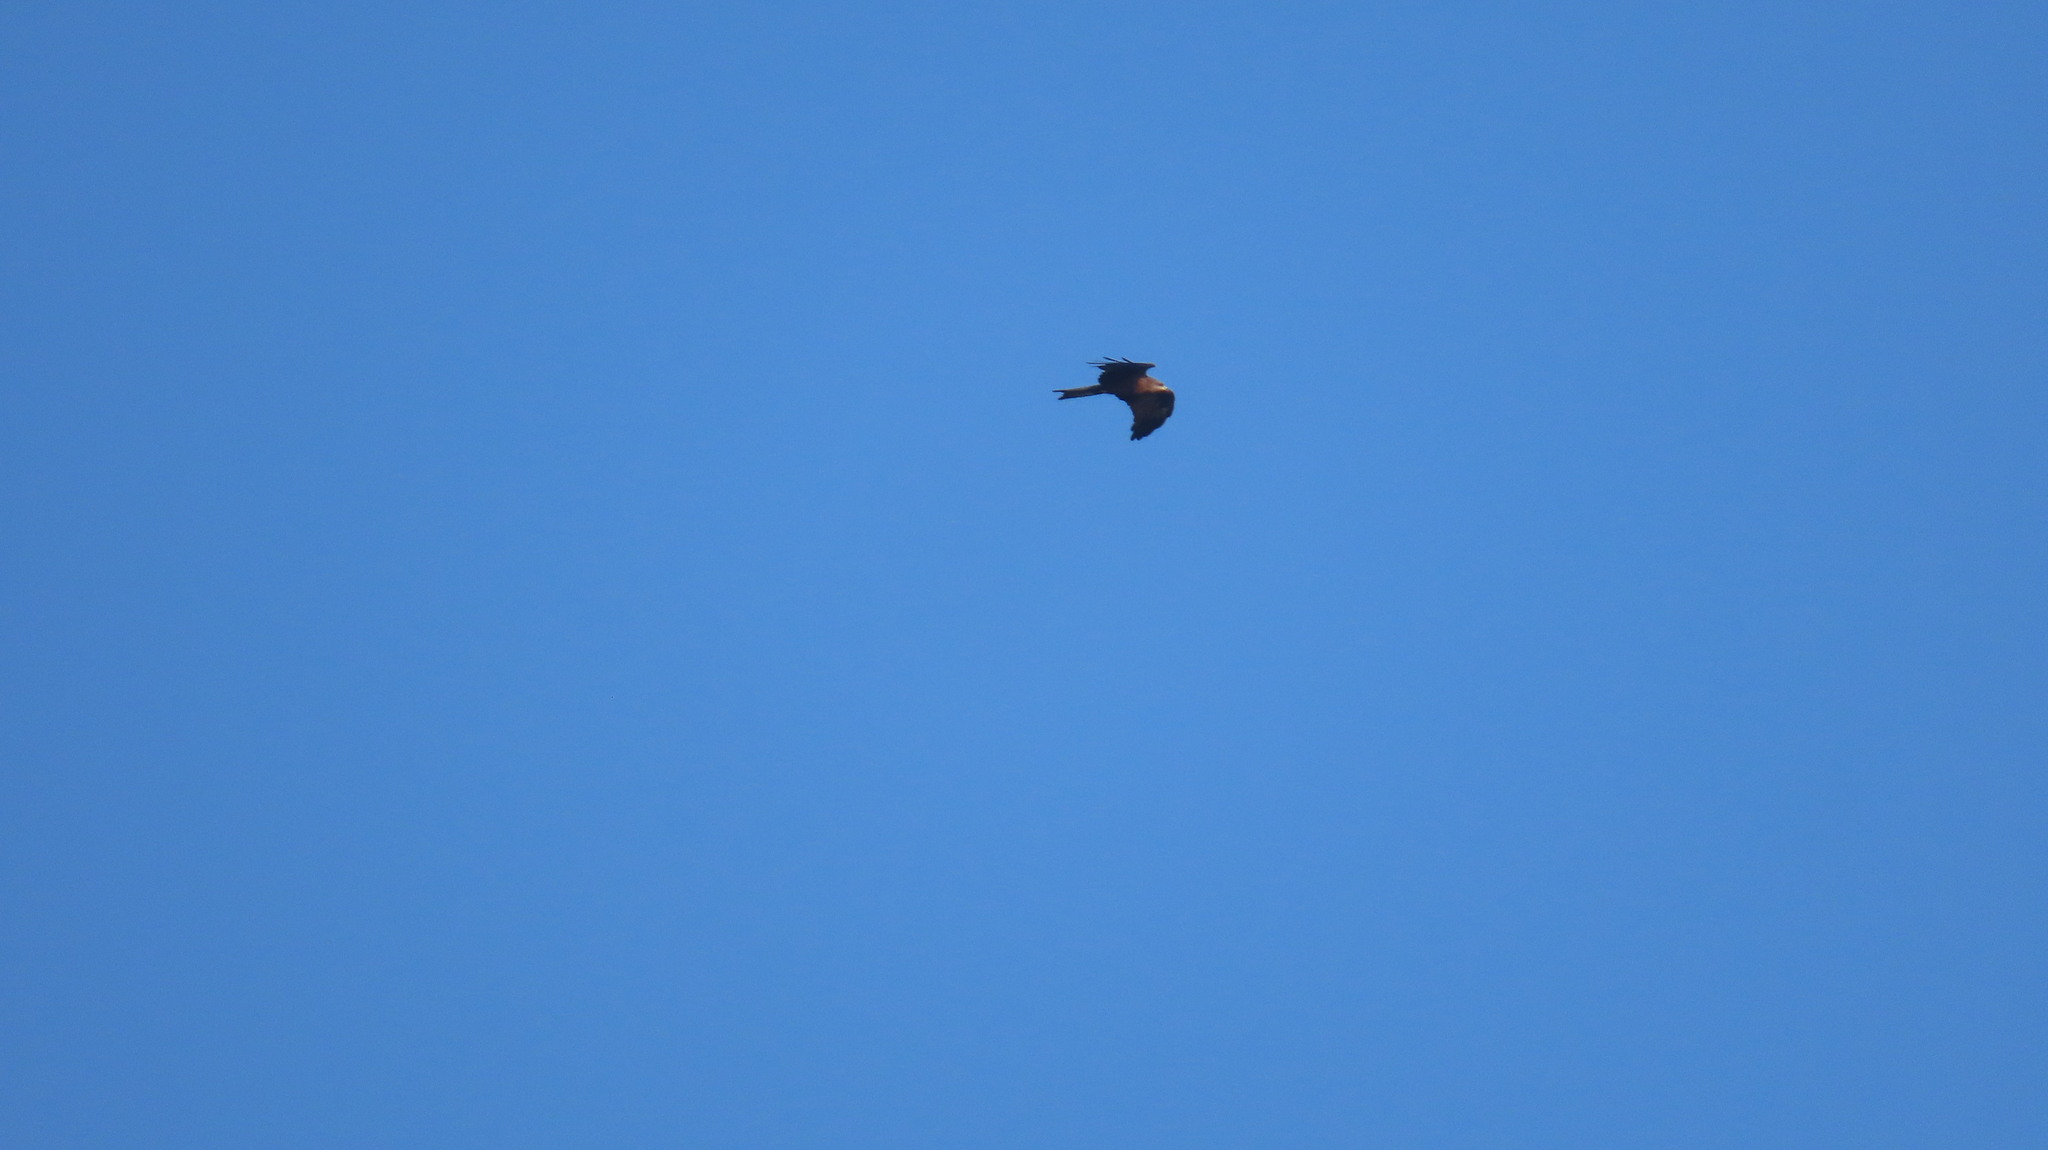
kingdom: Animalia
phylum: Chordata
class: Aves
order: Accipitriformes
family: Accipitridae
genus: Milvus
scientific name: Milvus migrans
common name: Black kite
